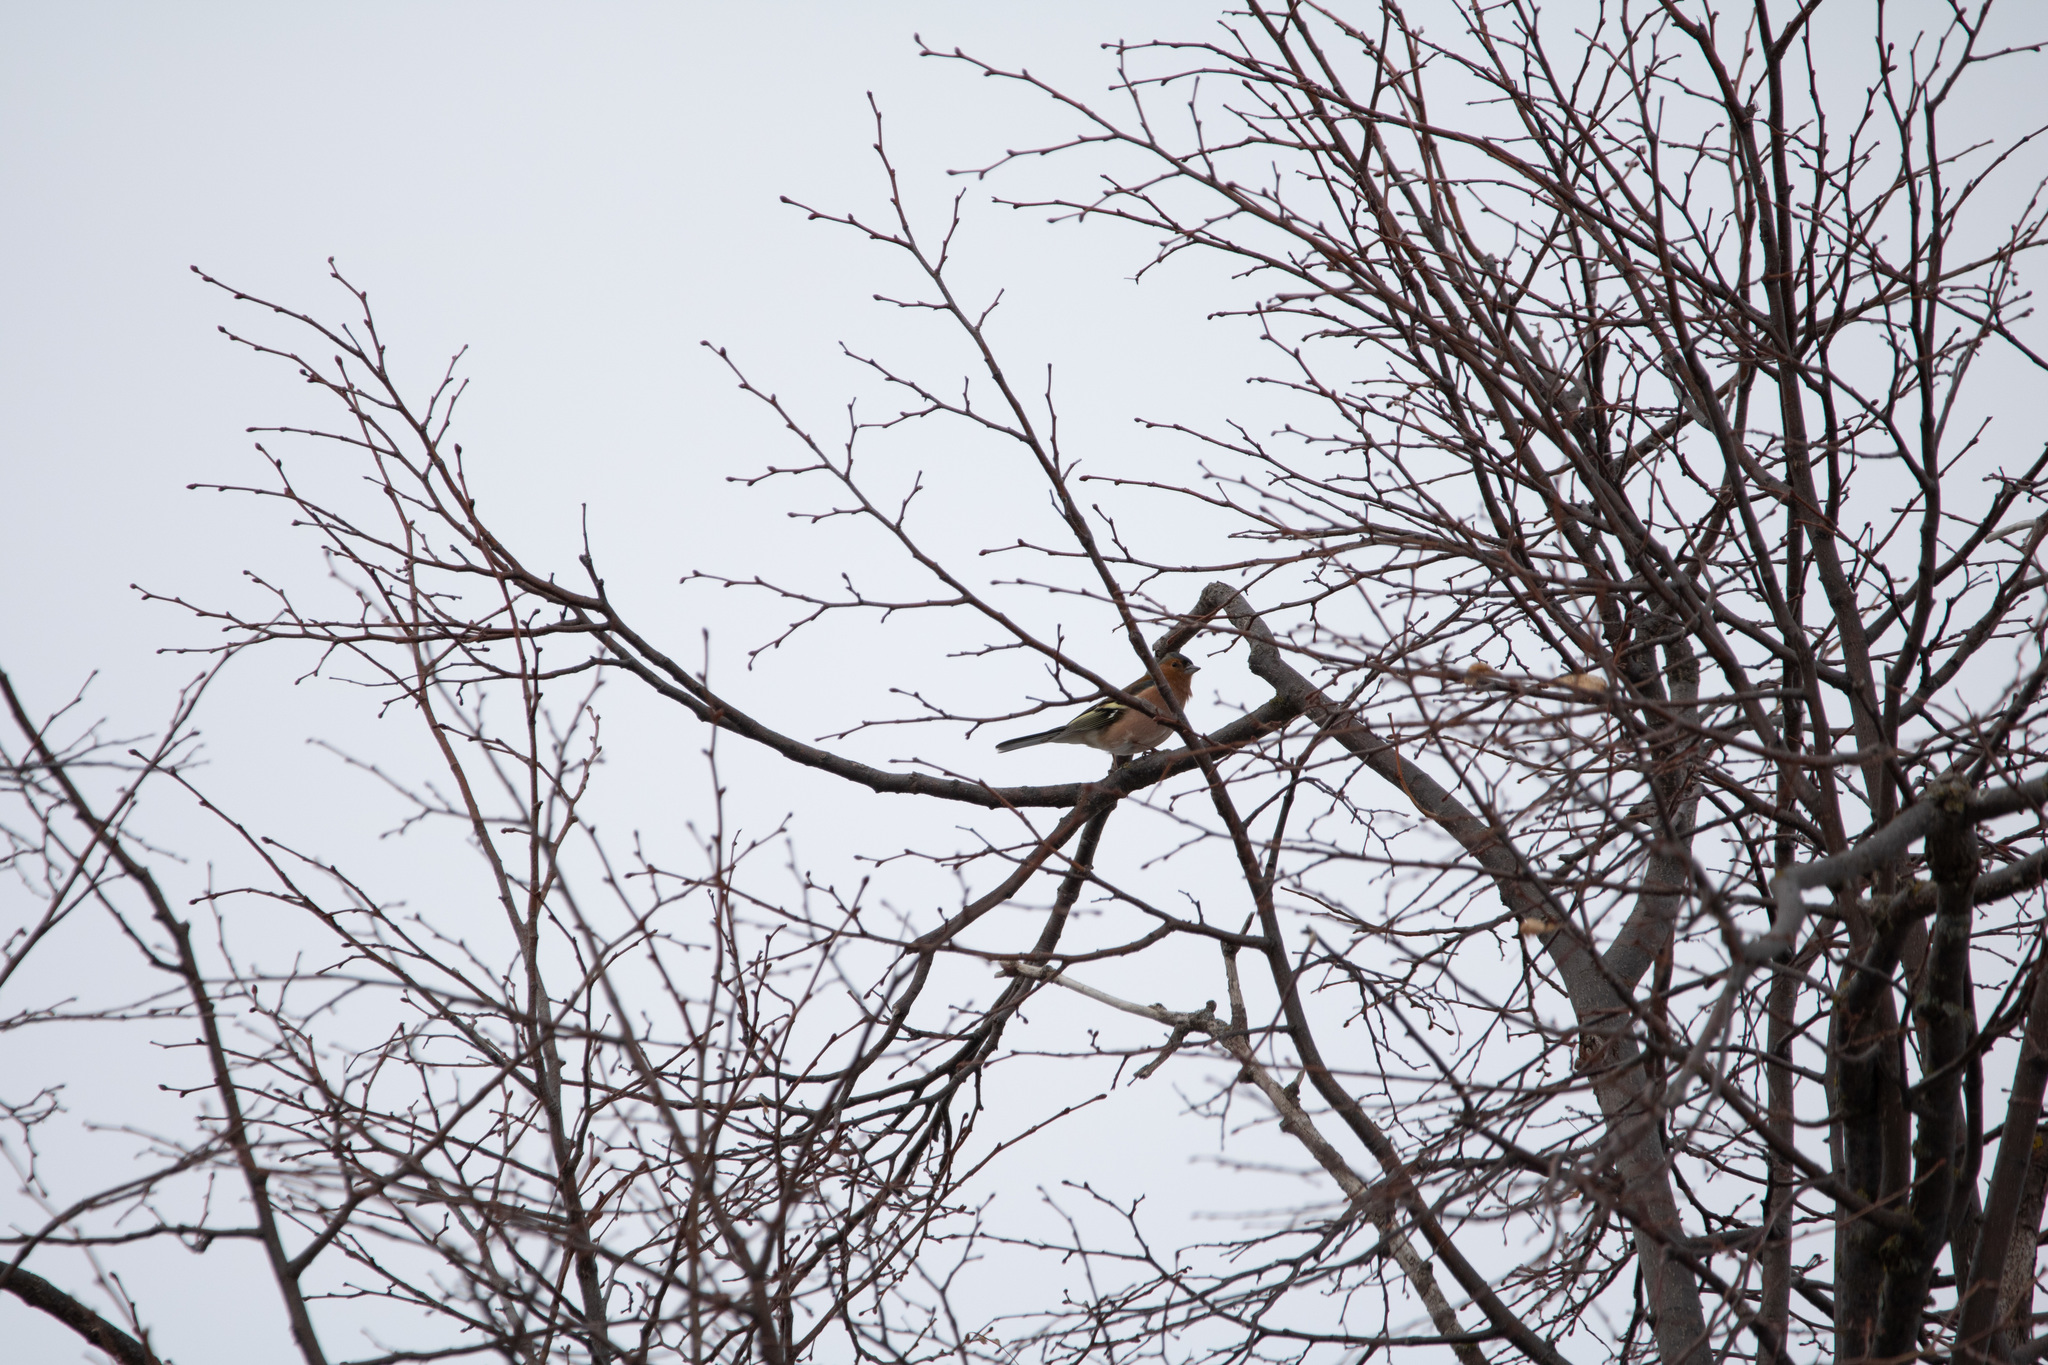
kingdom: Animalia
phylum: Chordata
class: Aves
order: Passeriformes
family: Fringillidae
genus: Fringilla
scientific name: Fringilla coelebs
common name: Common chaffinch
